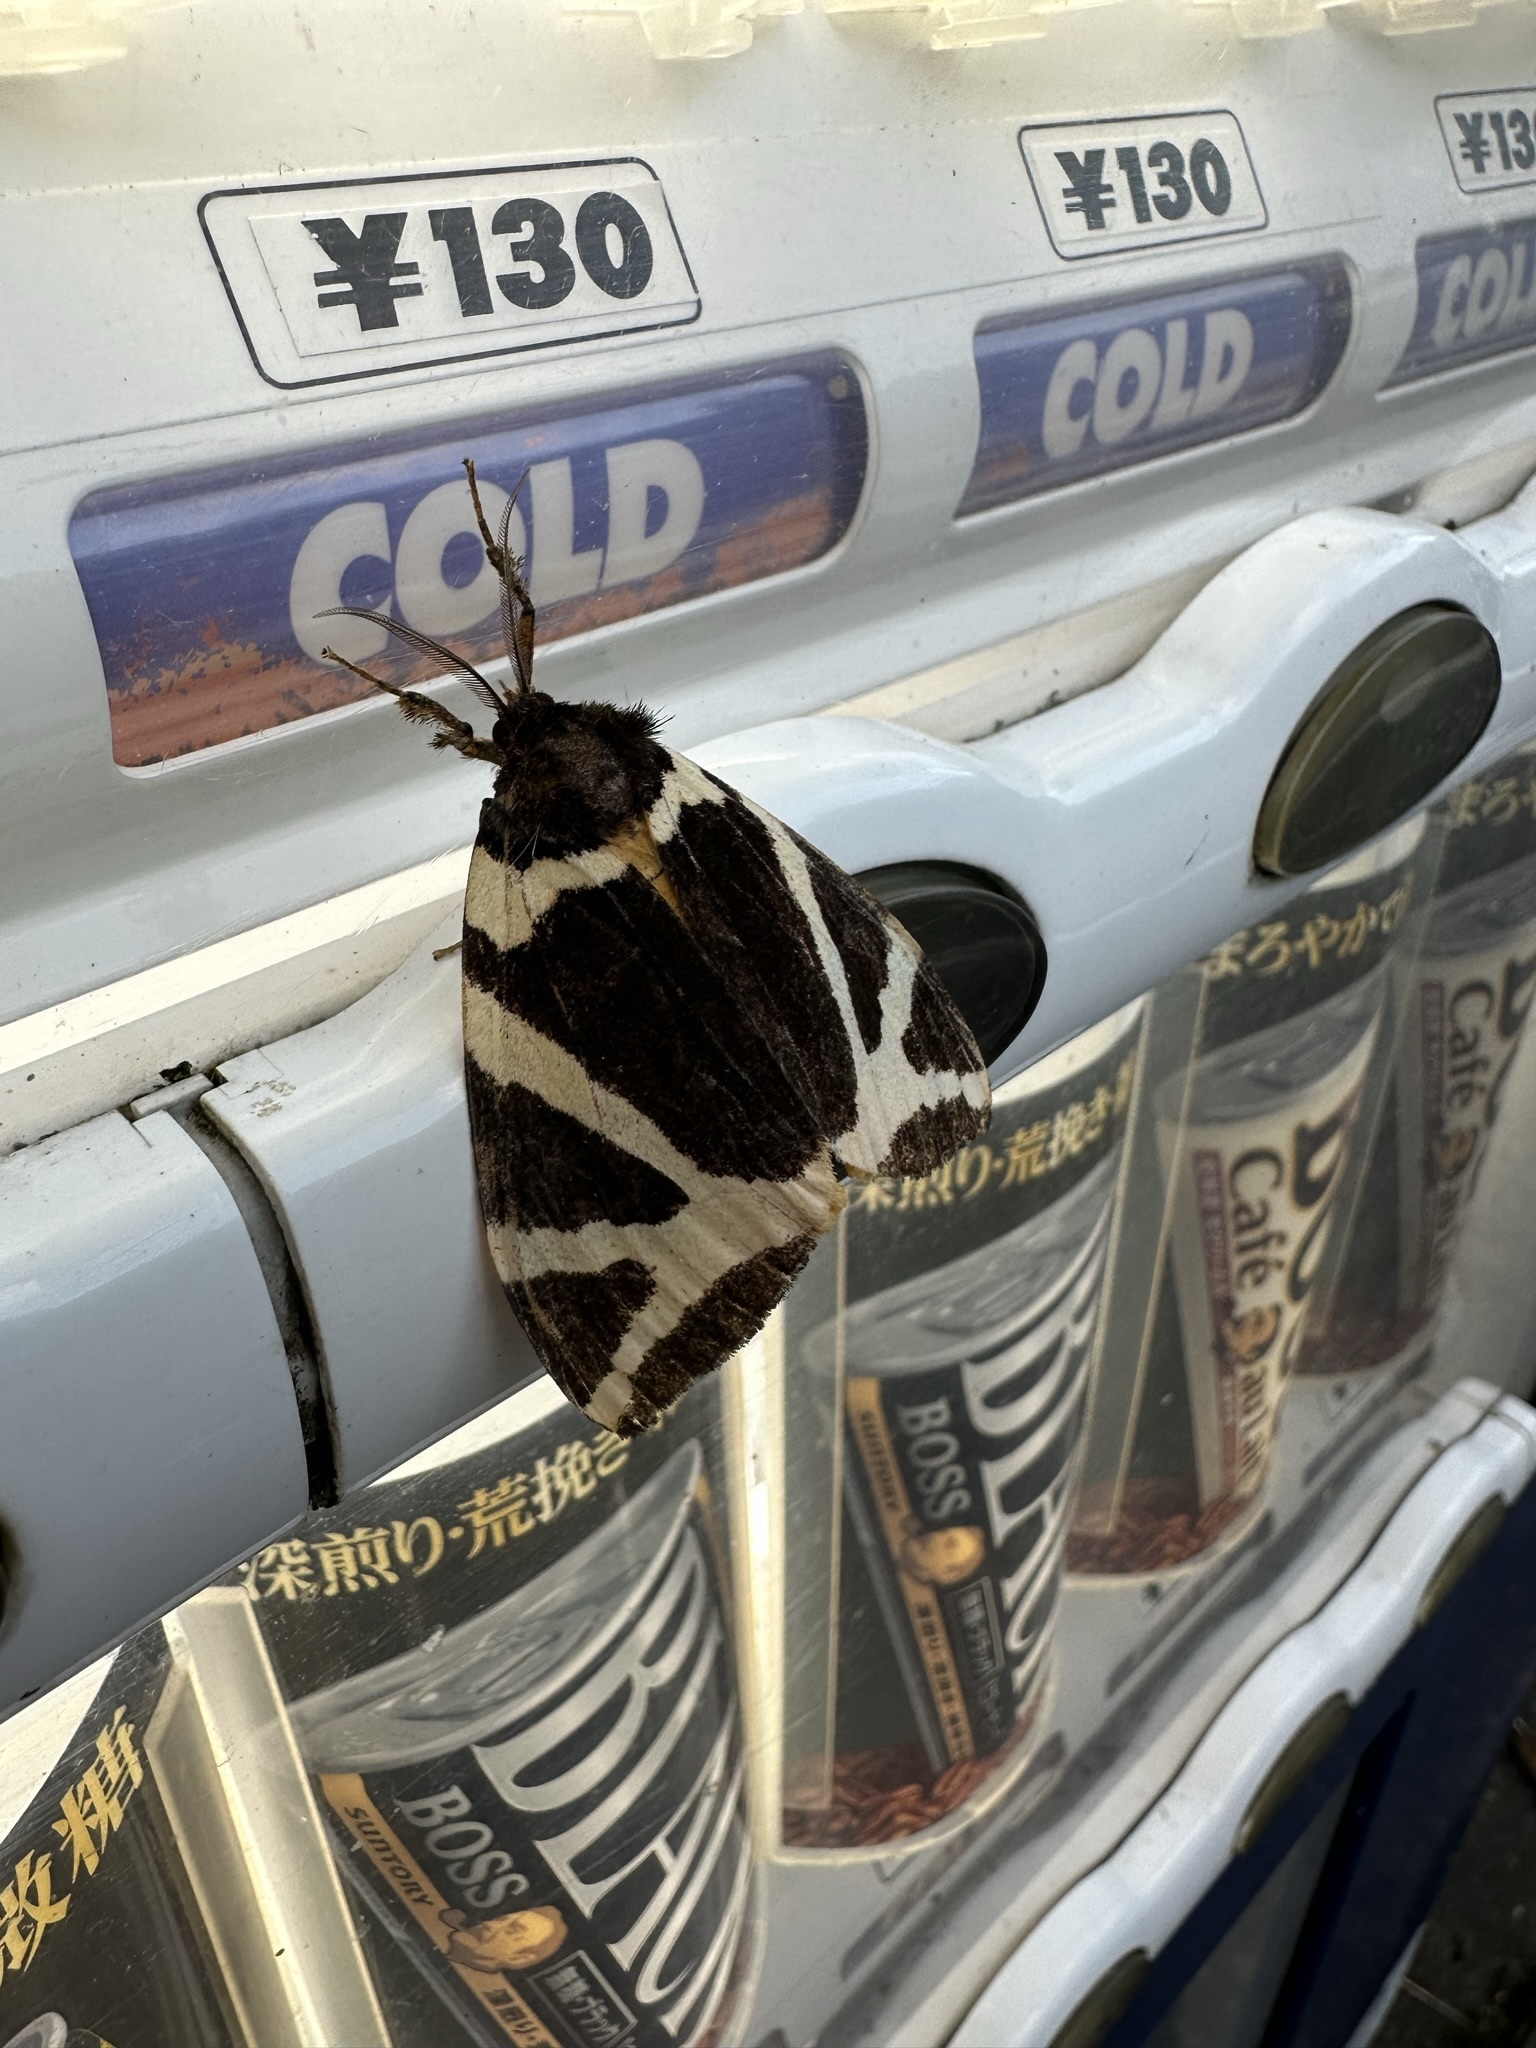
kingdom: Animalia
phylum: Arthropoda
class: Insecta
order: Lepidoptera
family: Erebidae
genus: Numenes
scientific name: Numenes disparilis
